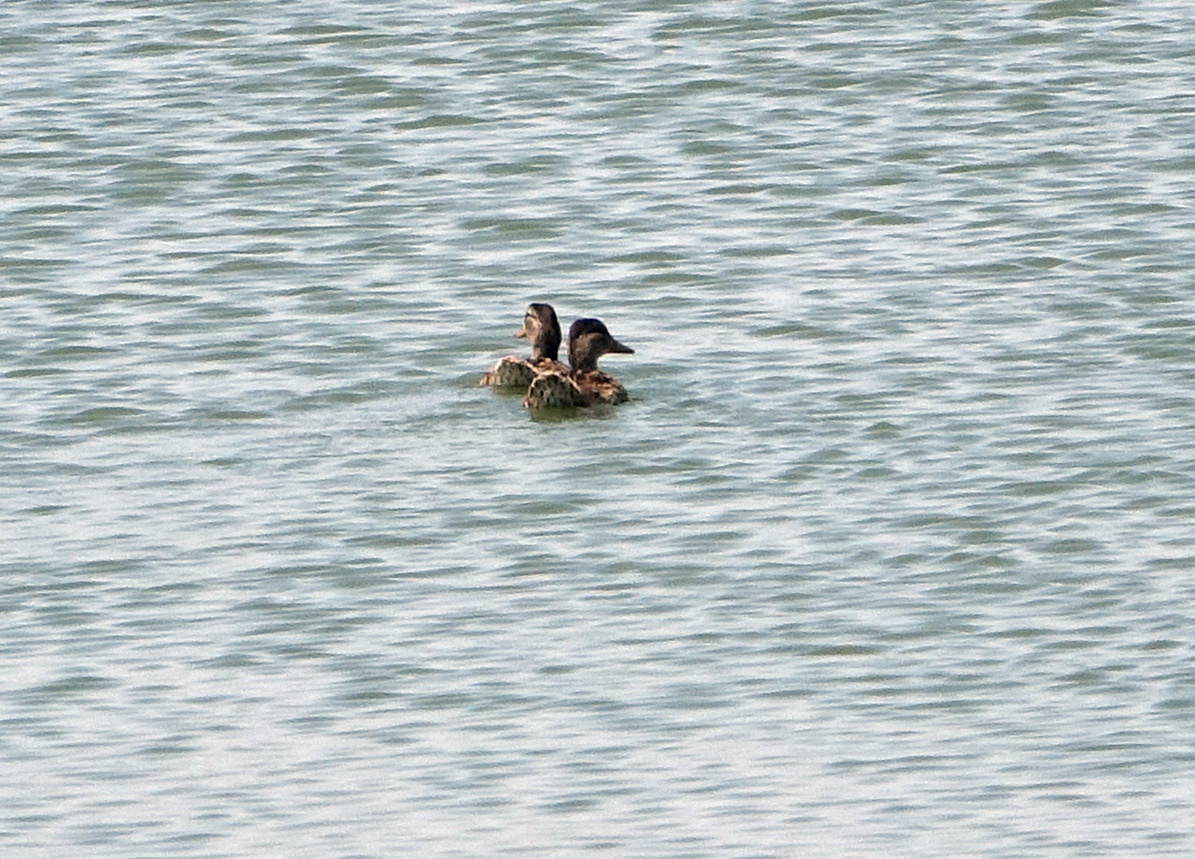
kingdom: Animalia
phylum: Chordata
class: Aves
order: Anseriformes
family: Anatidae
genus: Anas
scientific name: Anas platyrhynchos
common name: Mallard
